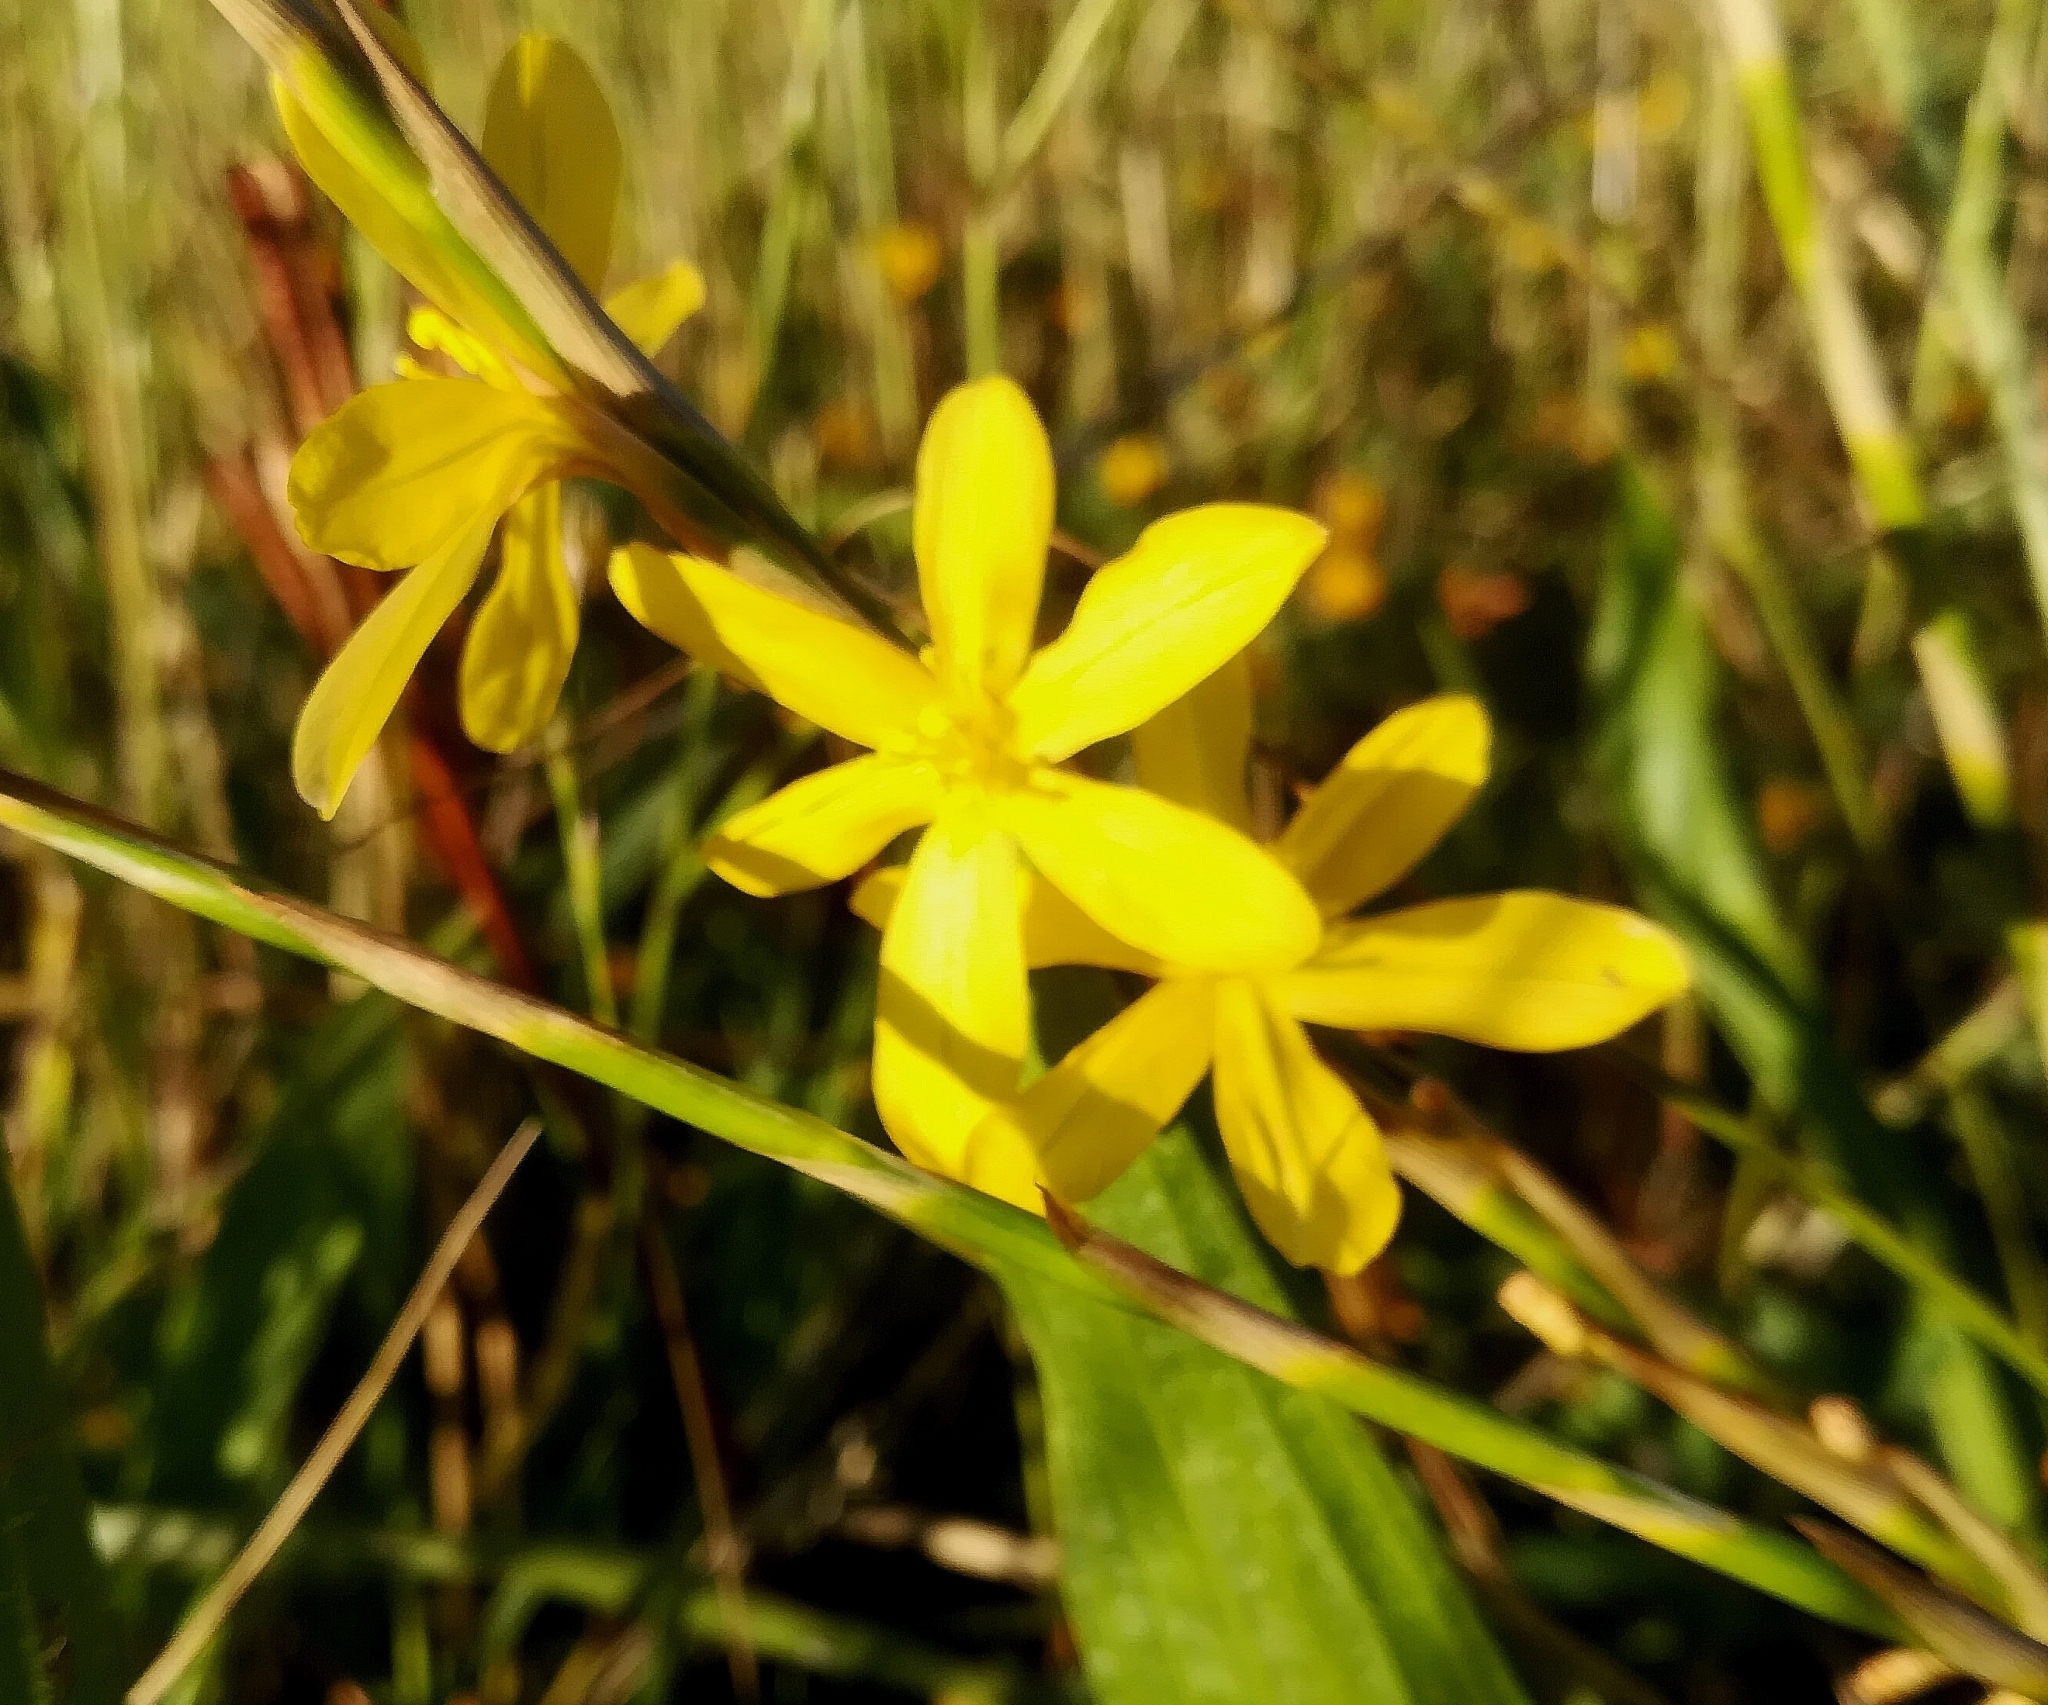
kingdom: Plantae
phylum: Tracheophyta
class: Liliopsida
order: Asparagales
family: Iridaceae
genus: Moraea
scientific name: Moraea virgata
